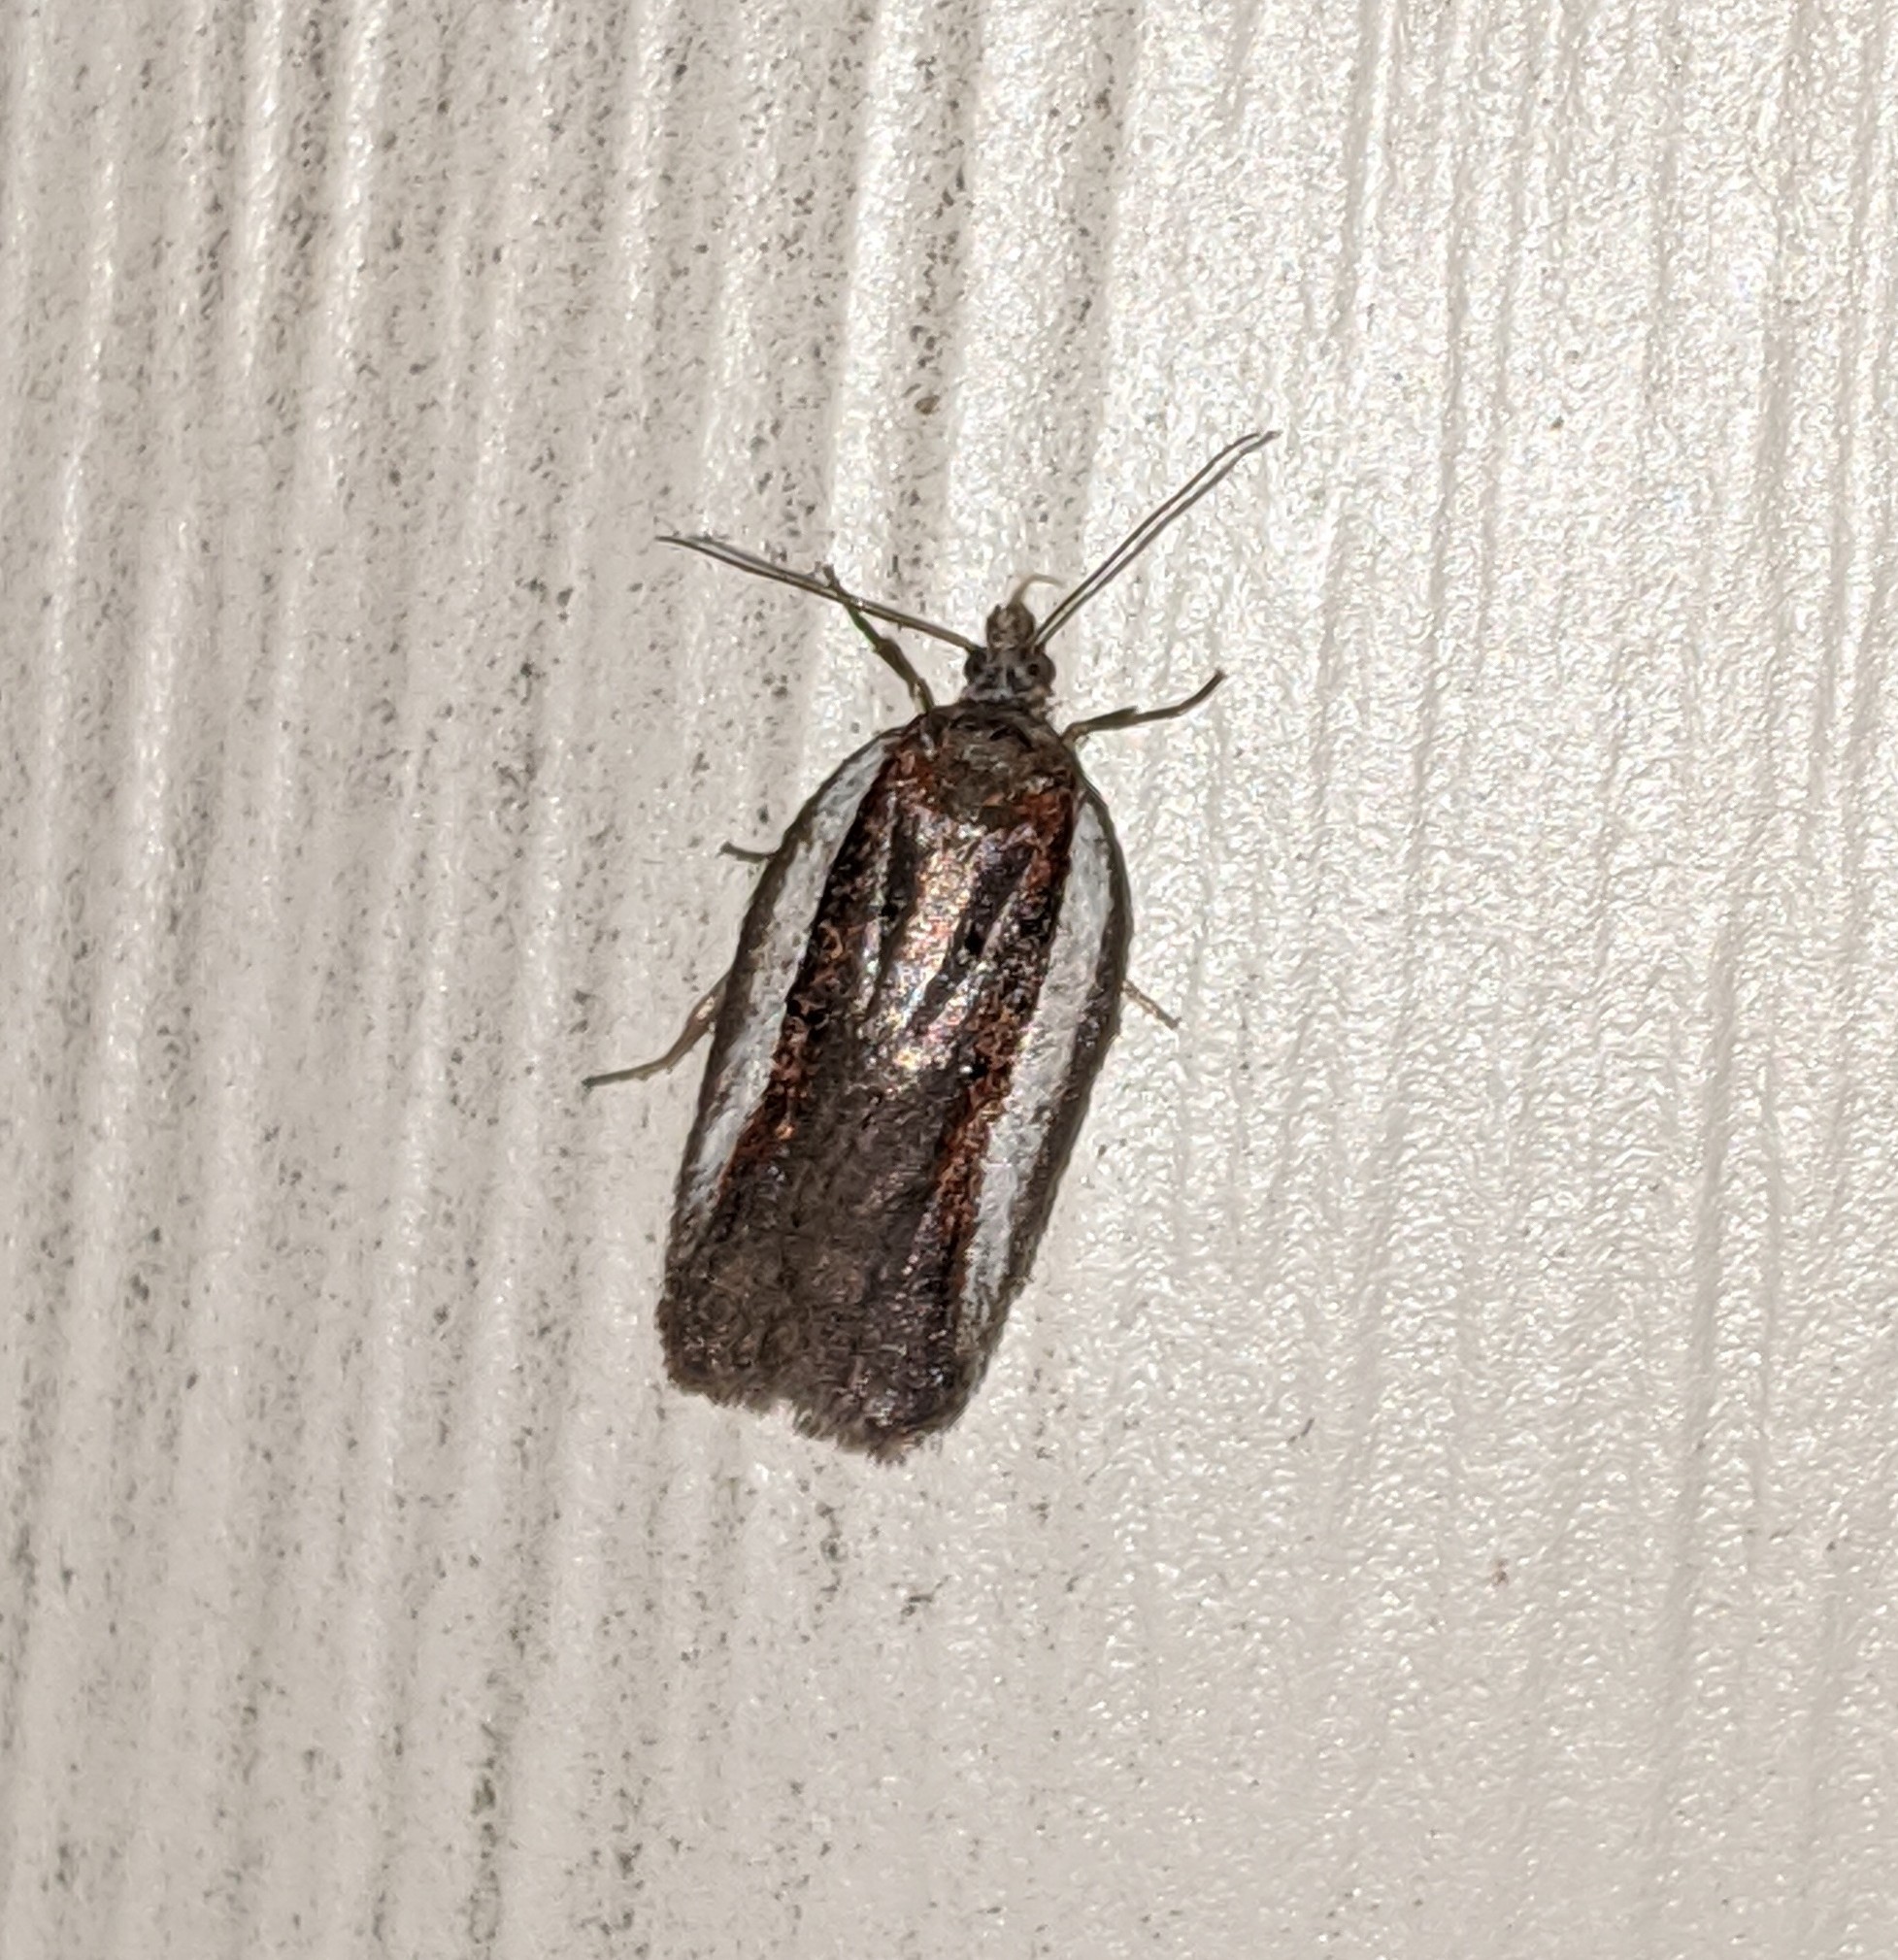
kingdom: Animalia
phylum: Arthropoda
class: Insecta
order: Lepidoptera
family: Tortricidae
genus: Acleris
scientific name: Acleris bowmanana
